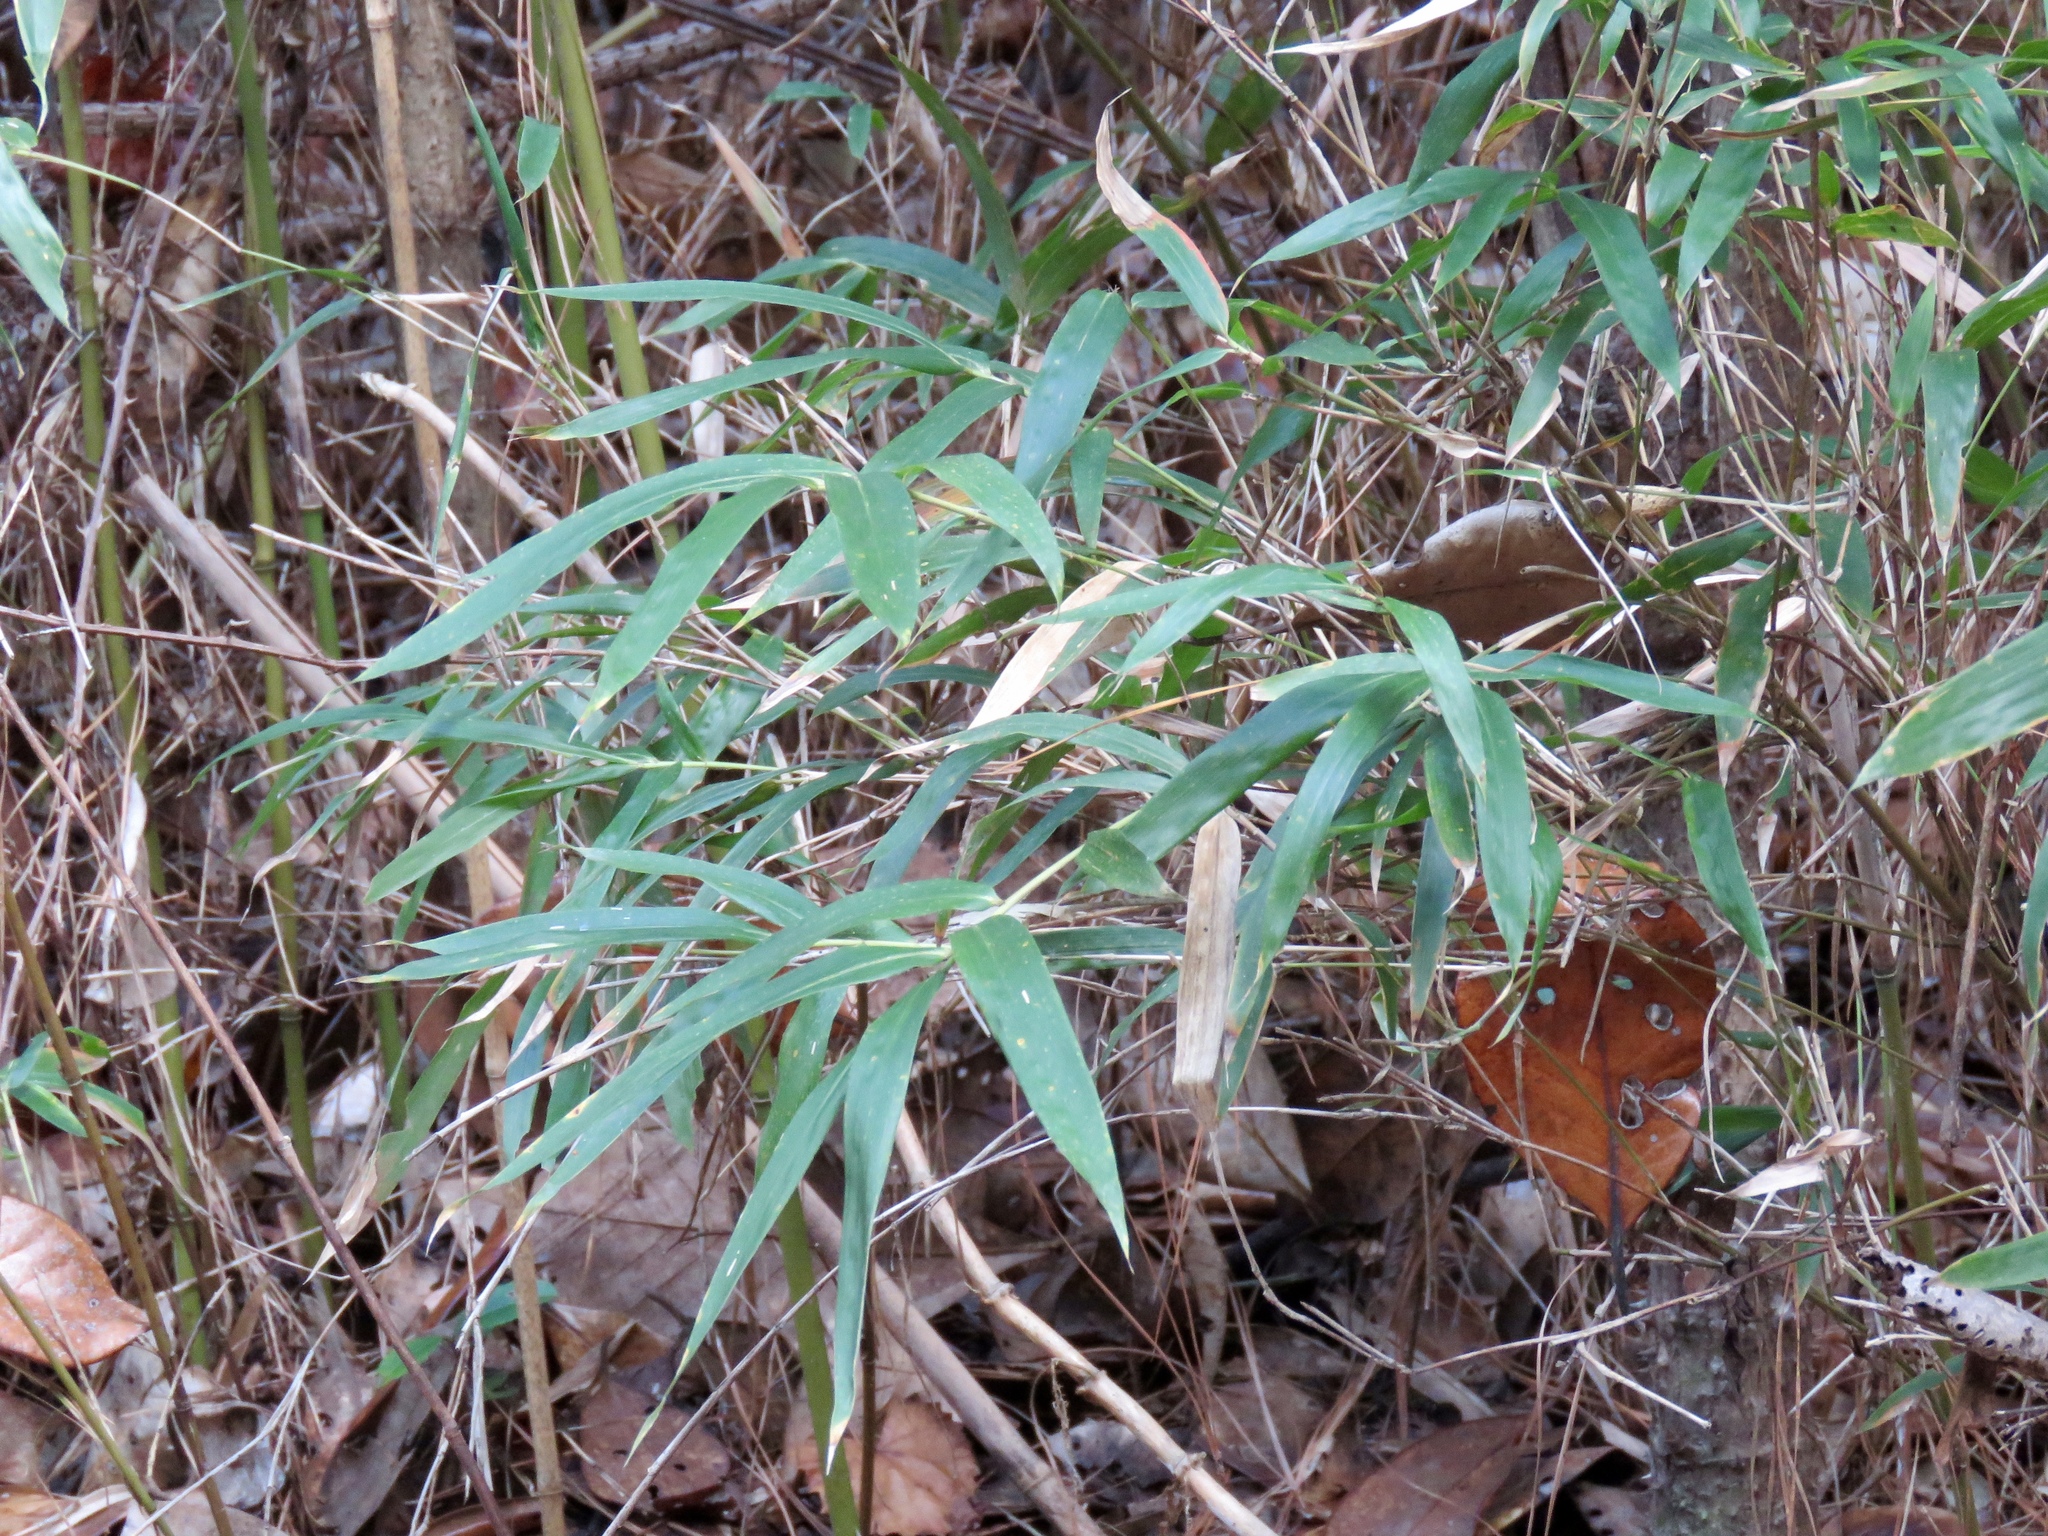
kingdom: Plantae
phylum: Tracheophyta
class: Liliopsida
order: Poales
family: Poaceae
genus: Arundinaria
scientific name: Arundinaria gigantea
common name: Giant cane
